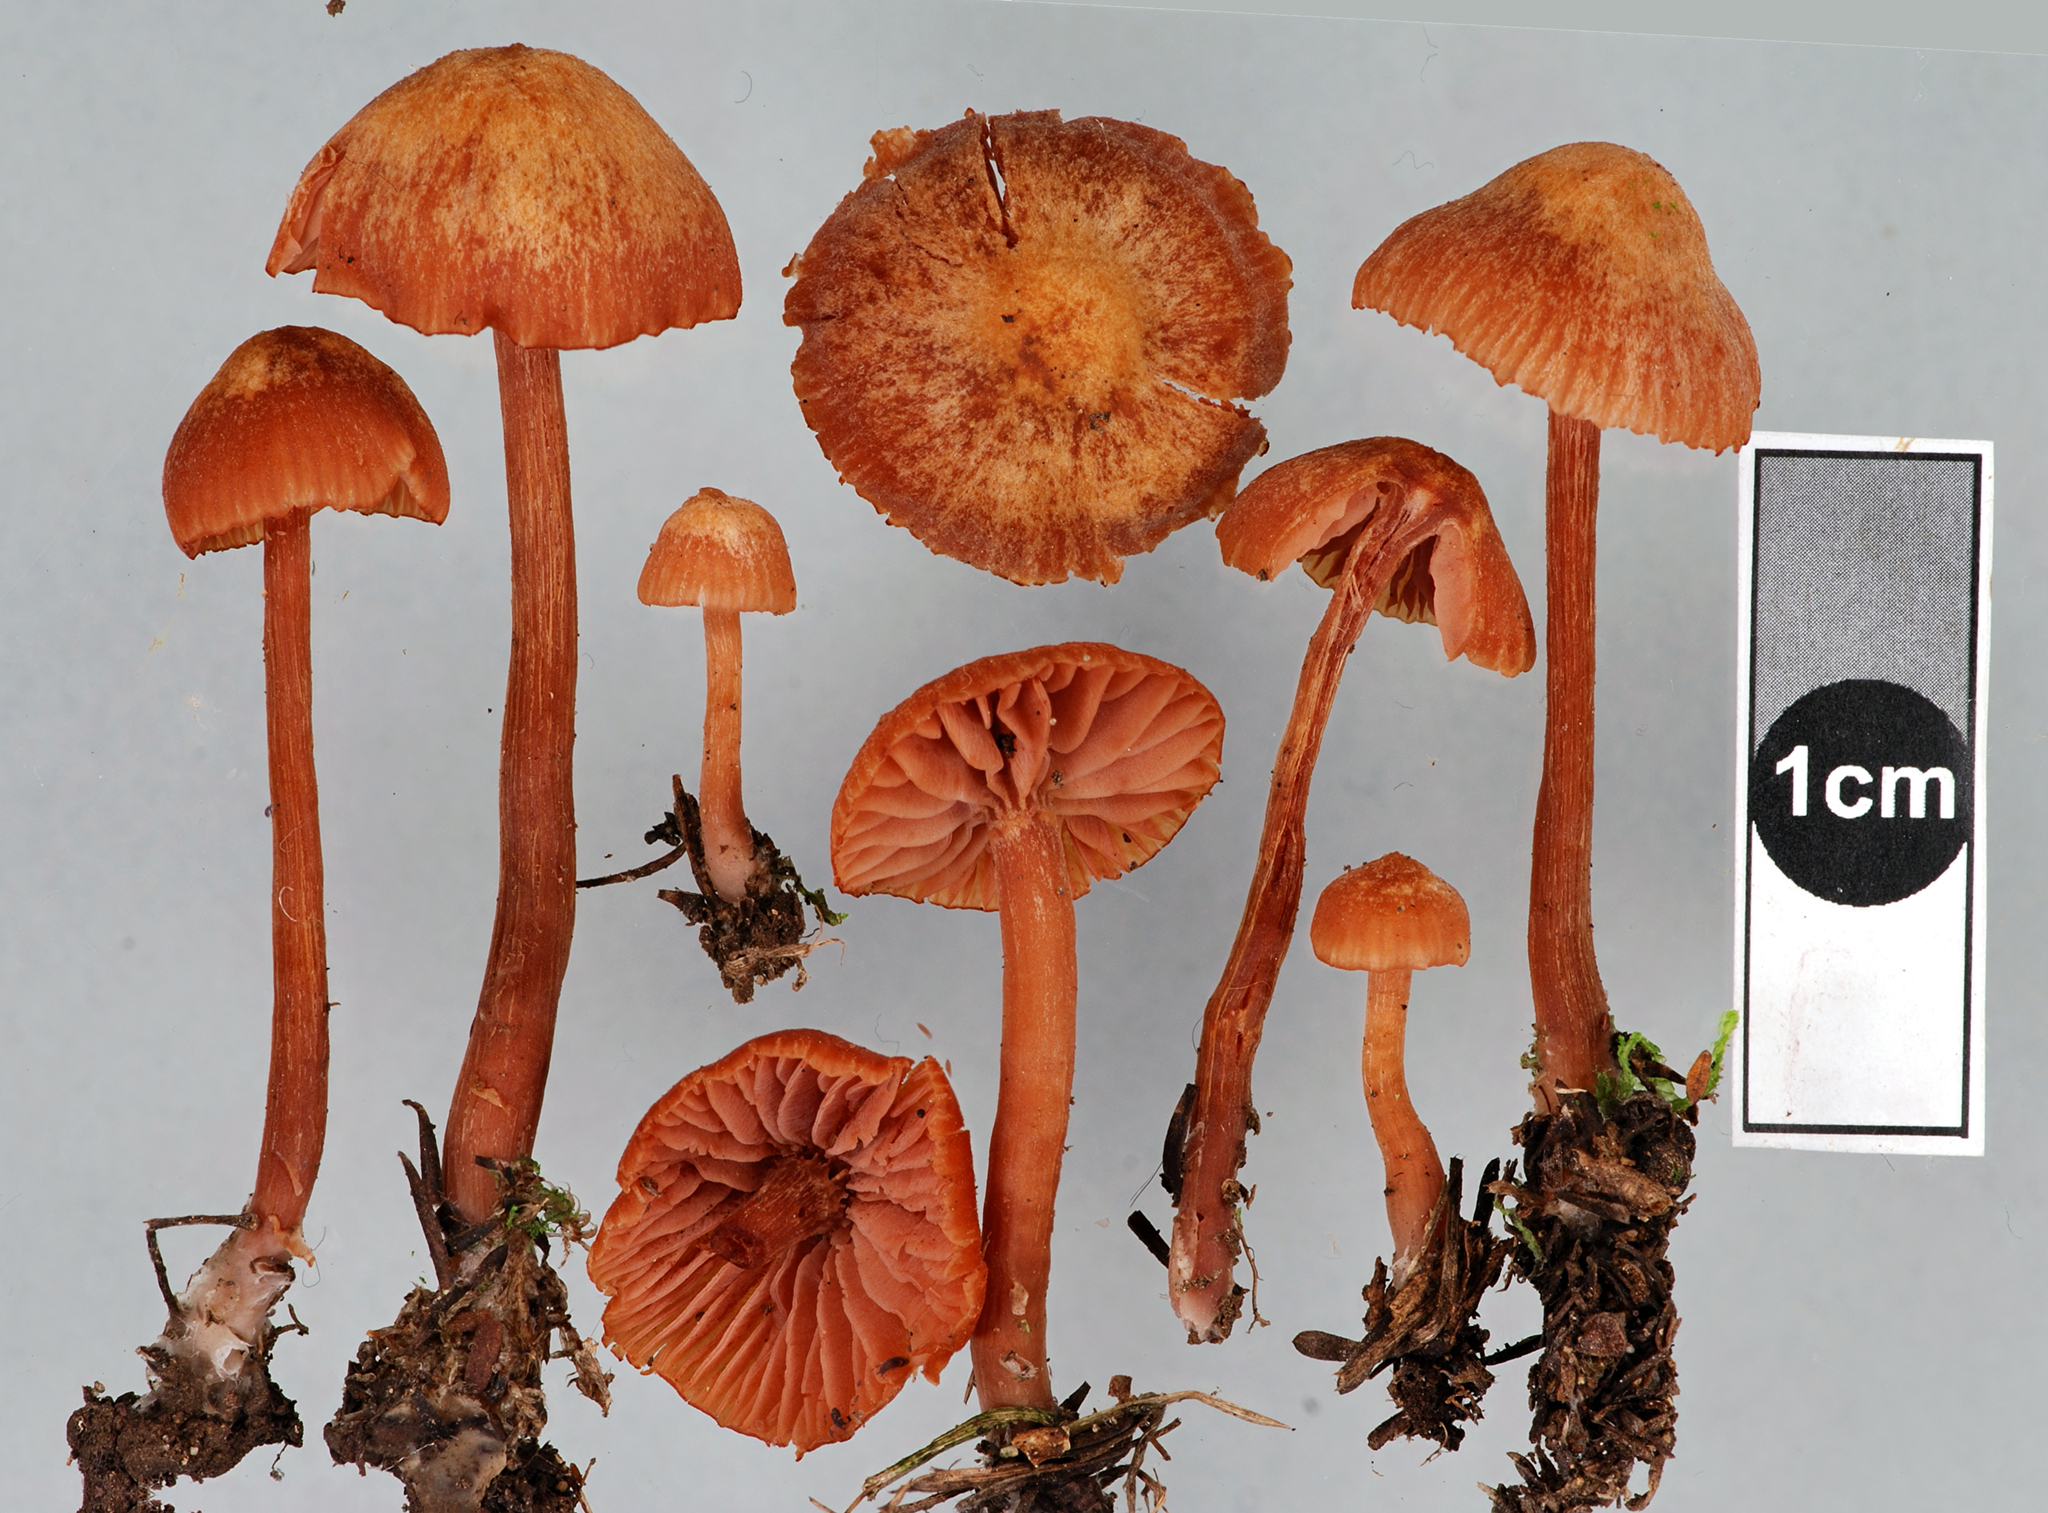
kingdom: Fungi
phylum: Basidiomycota
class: Agaricomycetes
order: Agaricales
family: Hydnangiaceae
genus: Laccaria
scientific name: Laccaria paraphysata
